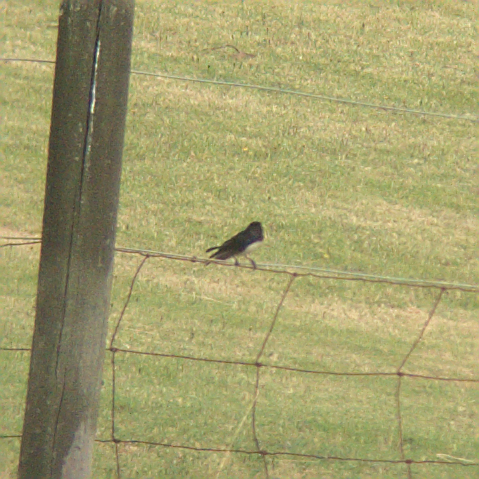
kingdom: Animalia
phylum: Chordata
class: Aves
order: Passeriformes
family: Rhipiduridae
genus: Rhipidura
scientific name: Rhipidura leucophrys
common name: Willie wagtail
